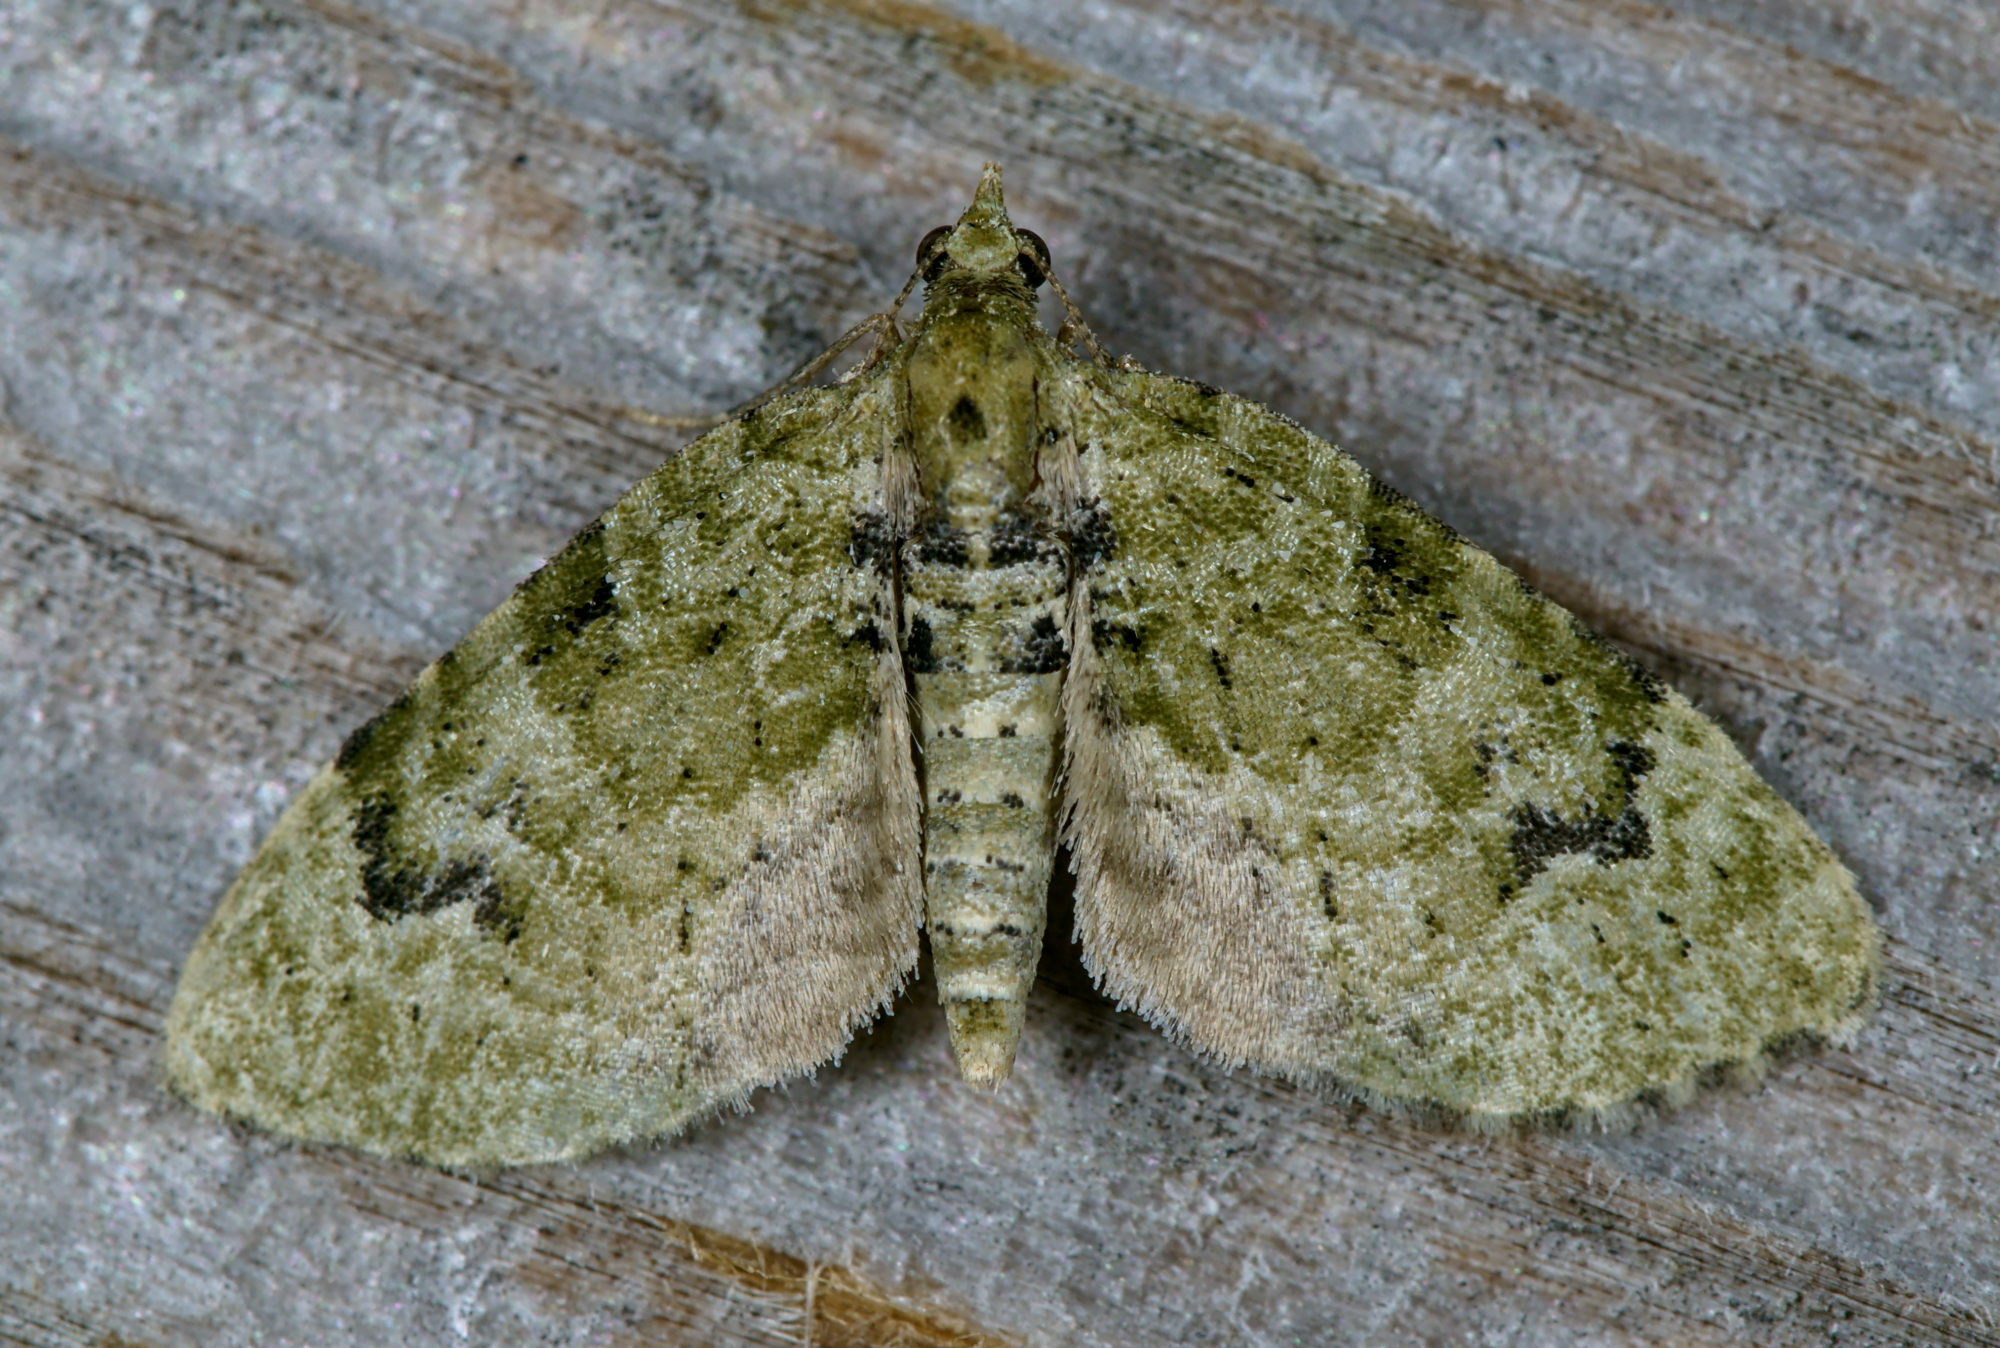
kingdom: Animalia
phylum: Arthropoda
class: Insecta
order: Lepidoptera
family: Geometridae
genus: Chloroclystis
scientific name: Chloroclystis v-ata
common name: V-pug
